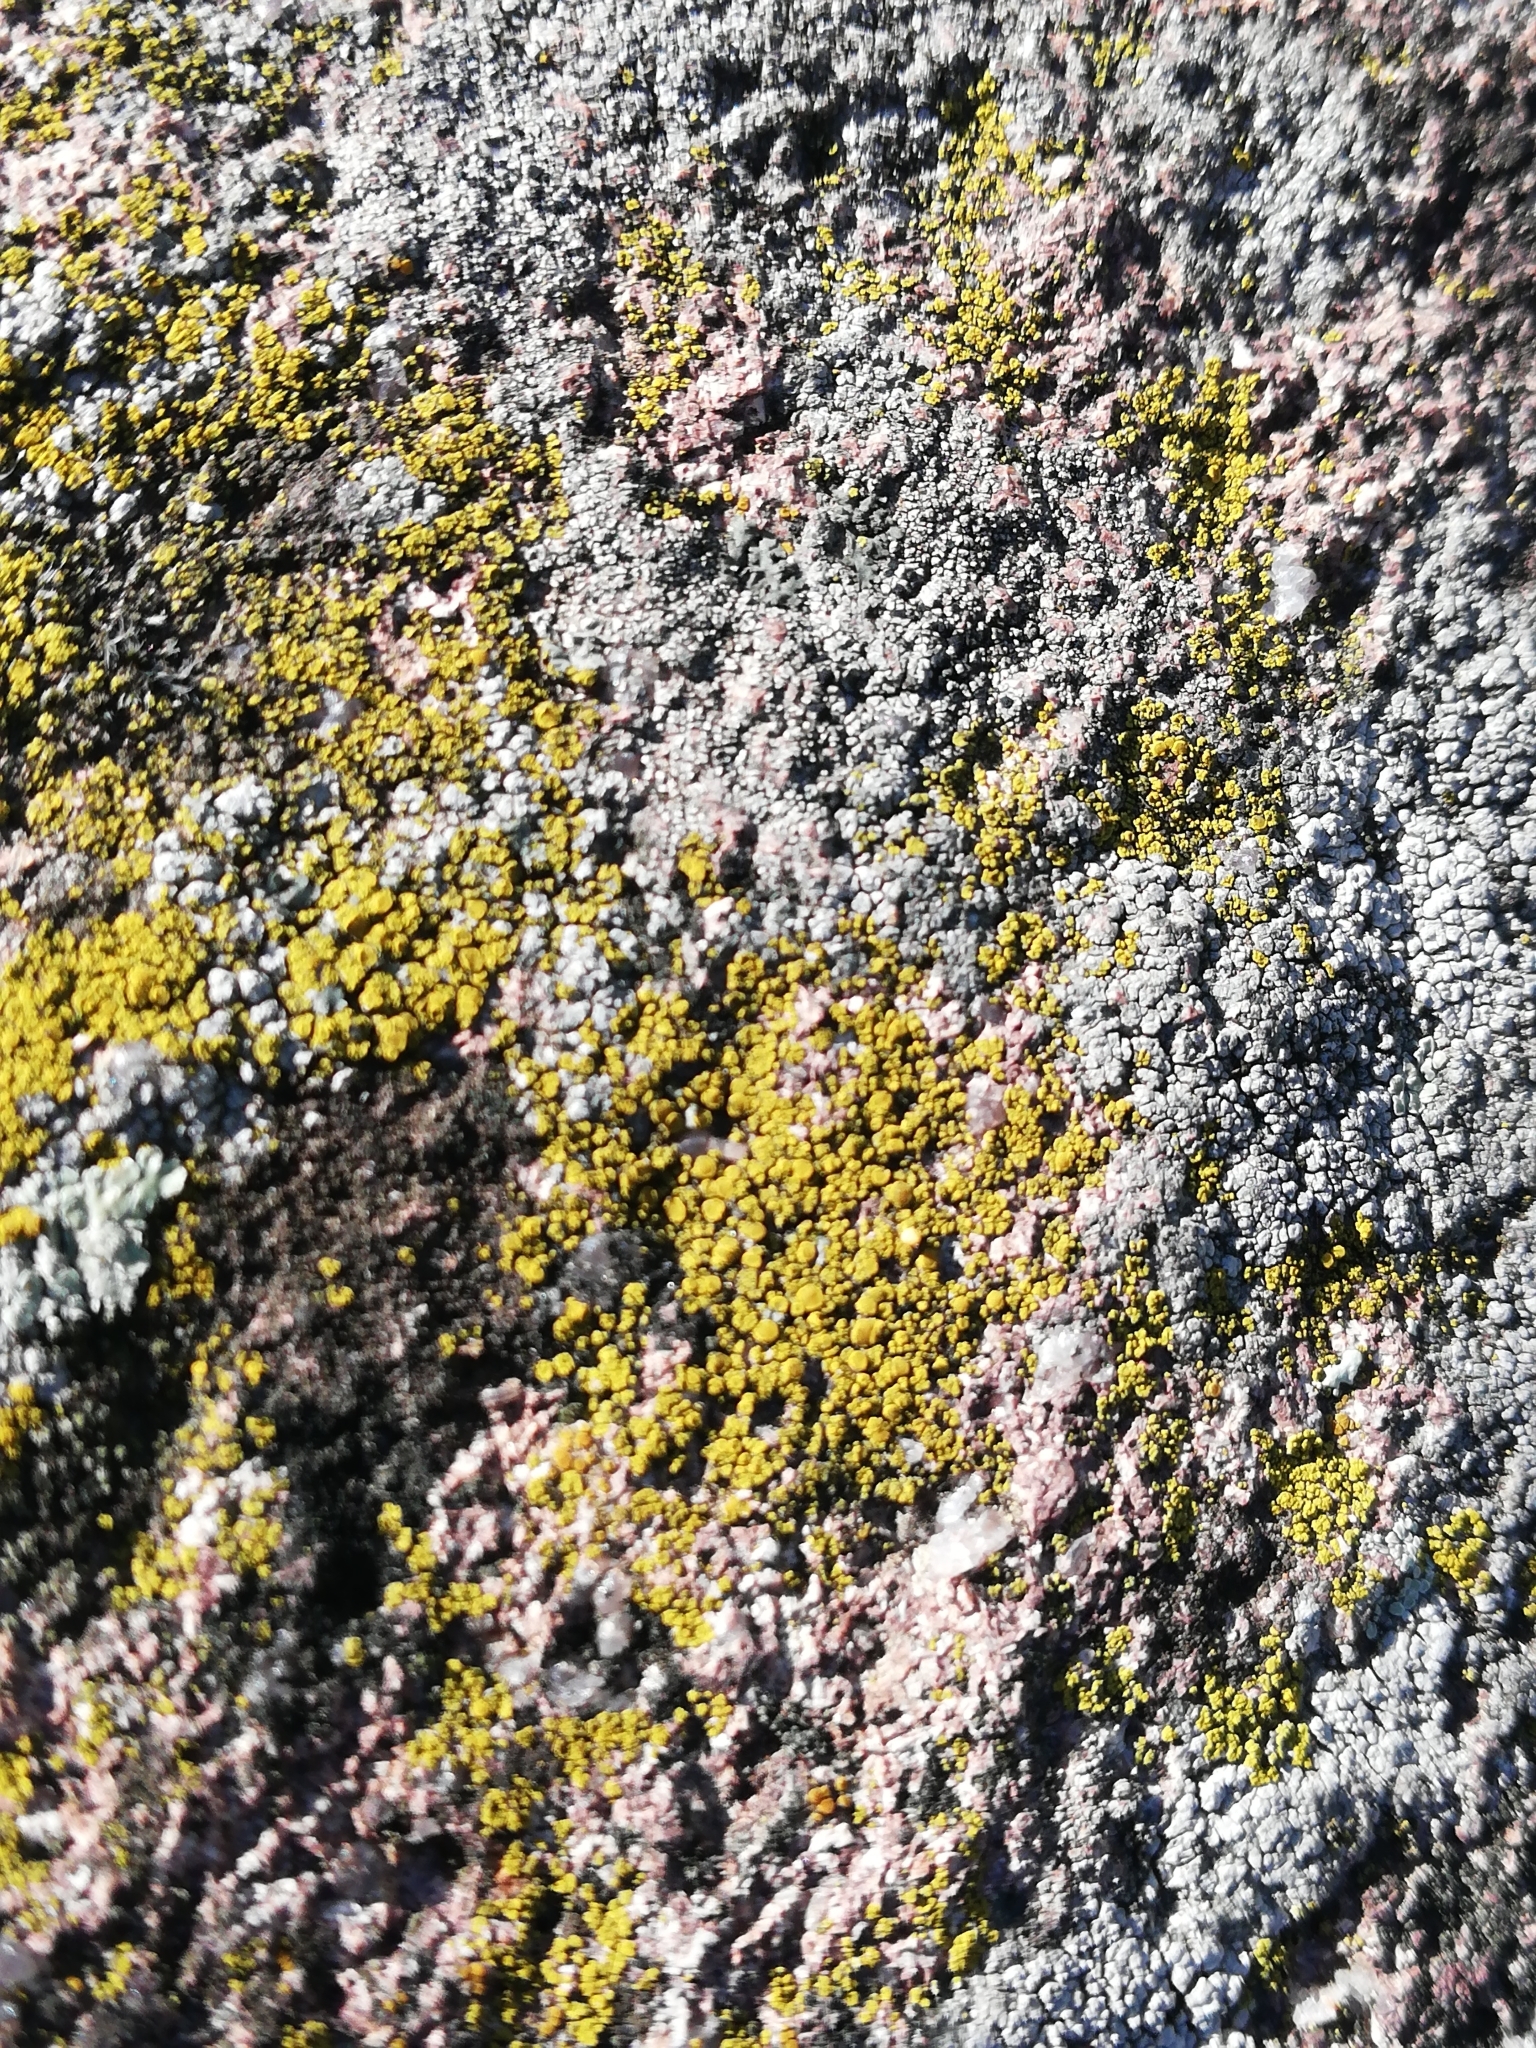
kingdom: Fungi
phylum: Ascomycota
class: Candelariomycetes
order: Candelariales
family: Candelariaceae
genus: Candelariella
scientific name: Candelariella vitellina
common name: Common goldspeck
